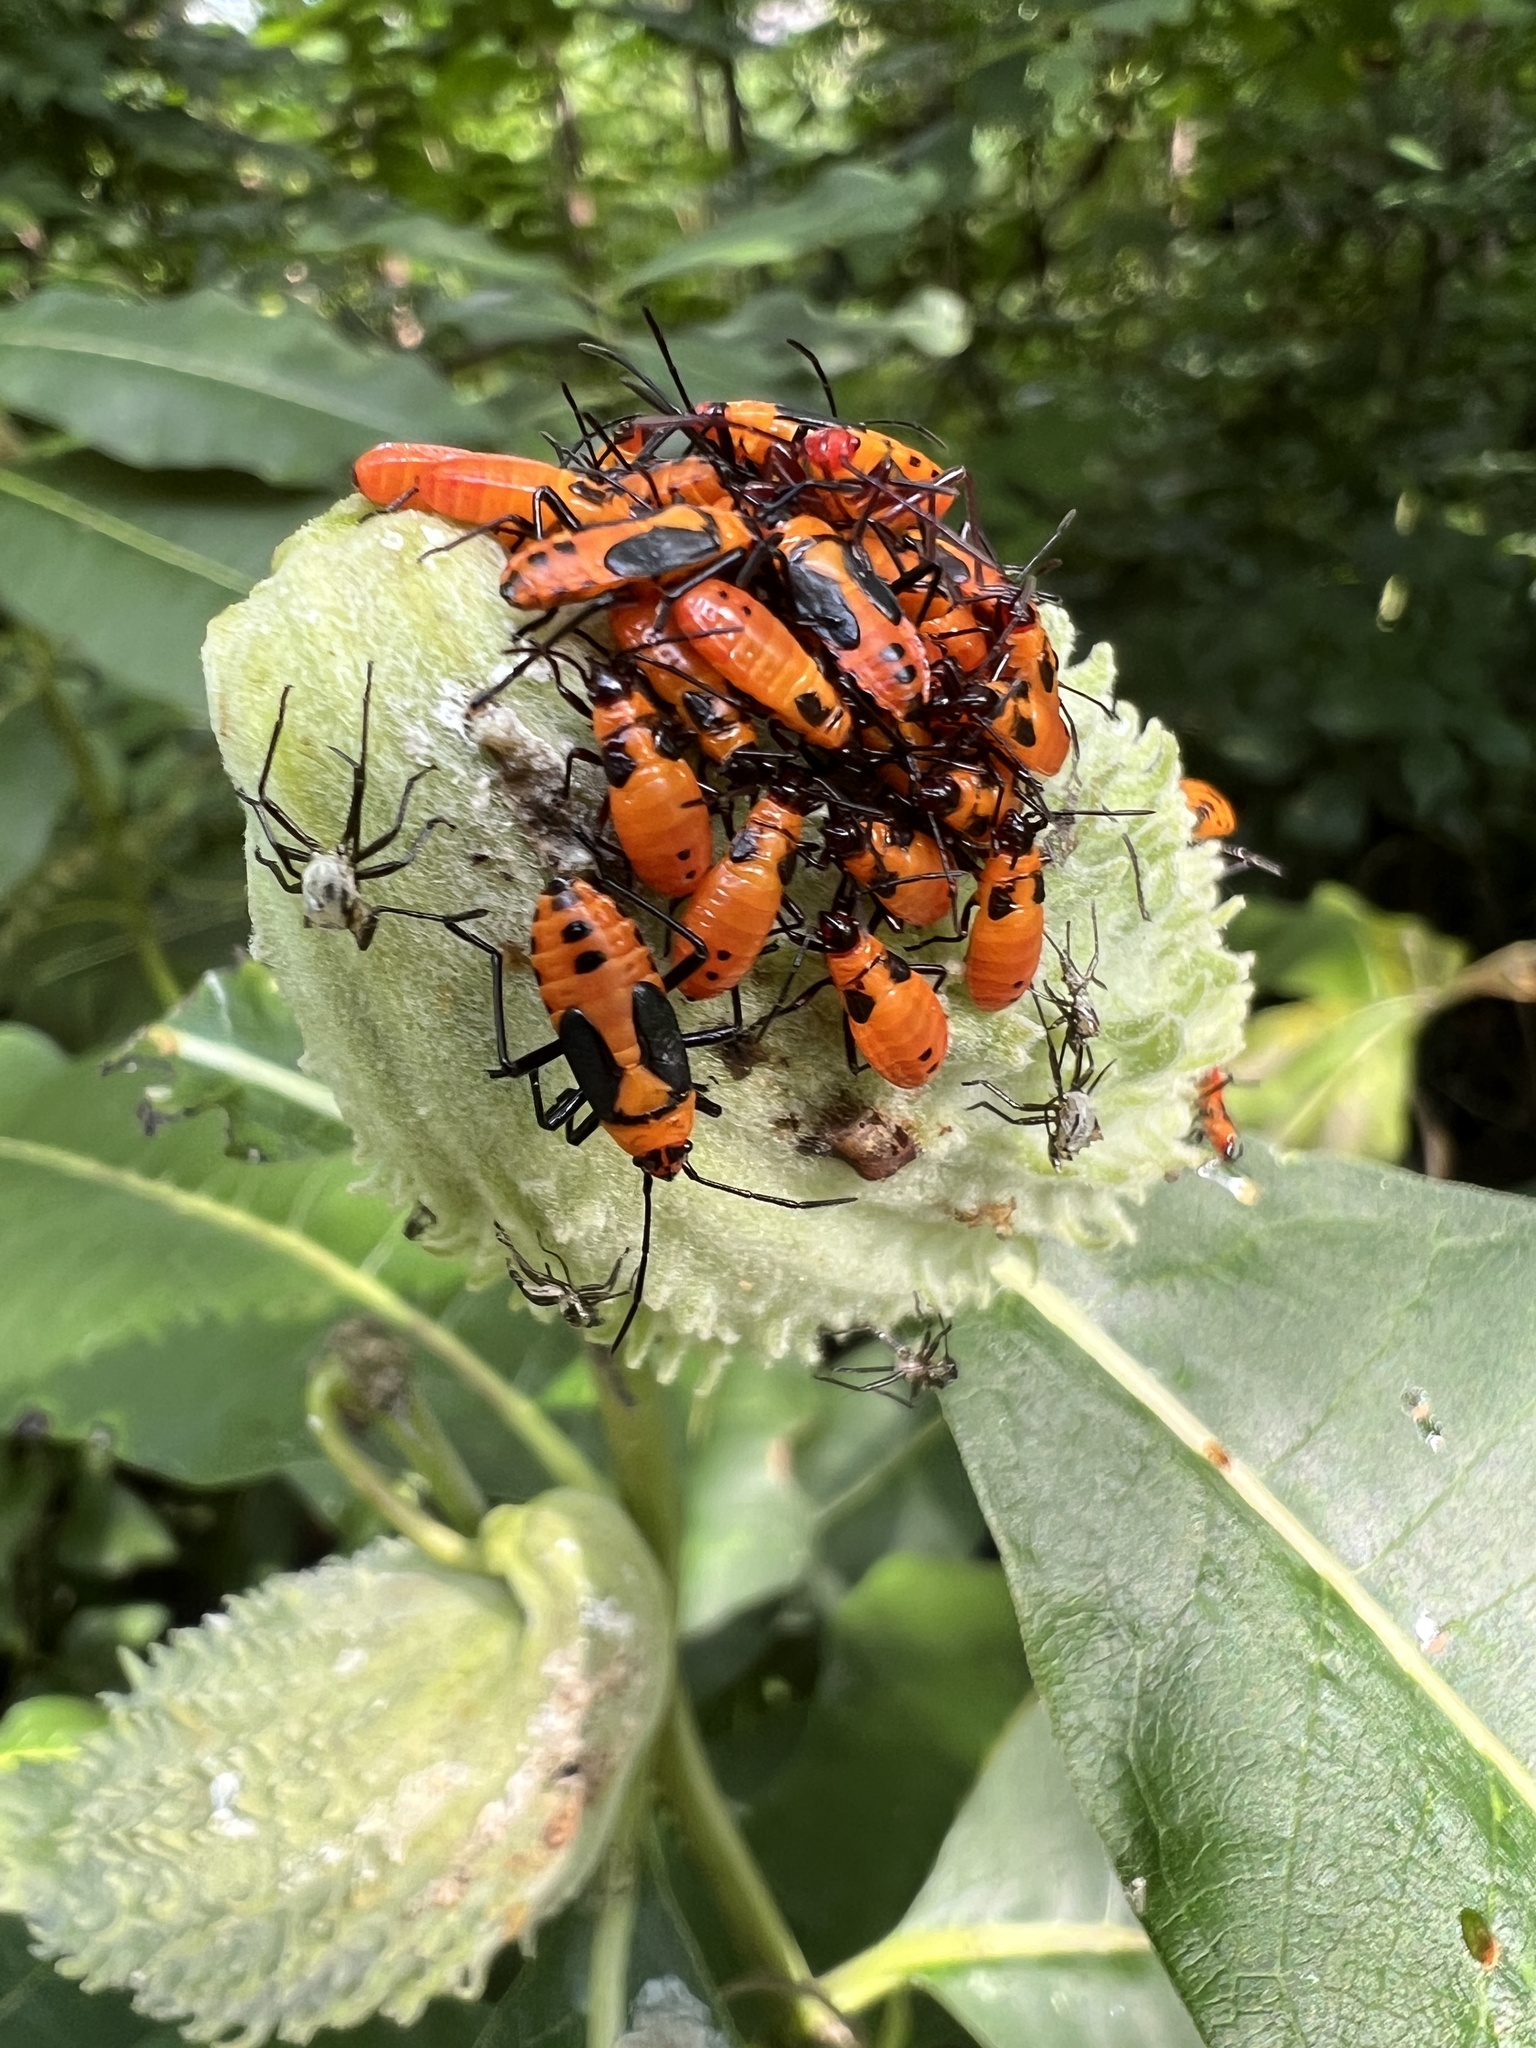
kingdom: Animalia
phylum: Arthropoda
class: Insecta
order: Hemiptera
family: Lygaeidae
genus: Oncopeltus
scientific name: Oncopeltus fasciatus
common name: Large milkweed bug
